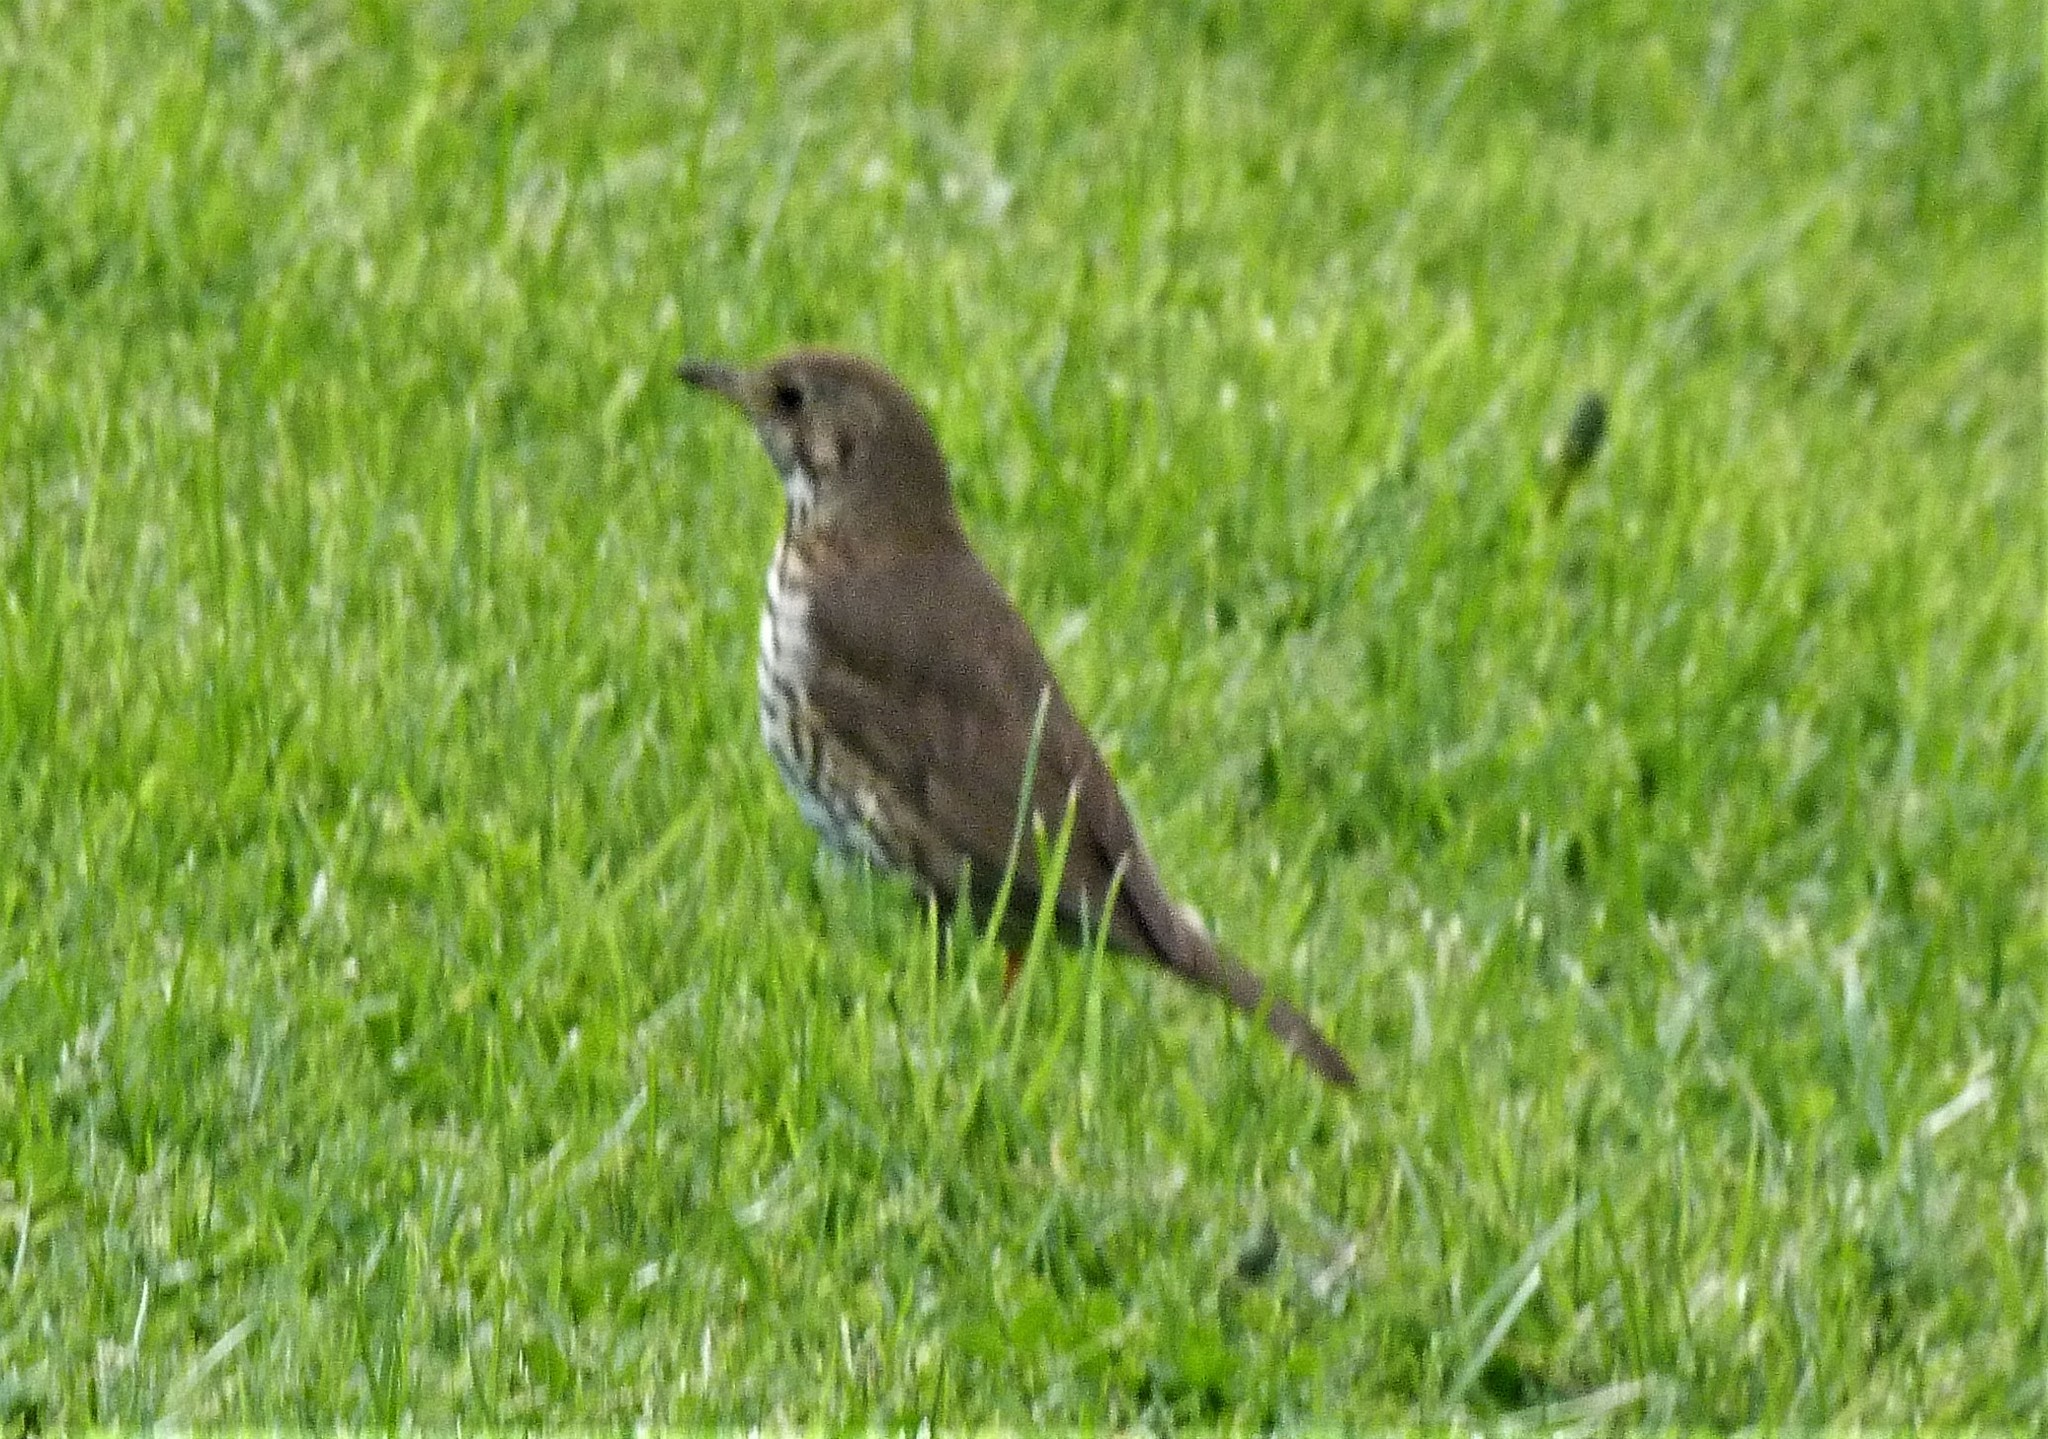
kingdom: Animalia
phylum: Chordata
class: Aves
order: Passeriformes
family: Turdidae
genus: Turdus
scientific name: Turdus philomelos
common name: Song thrush
